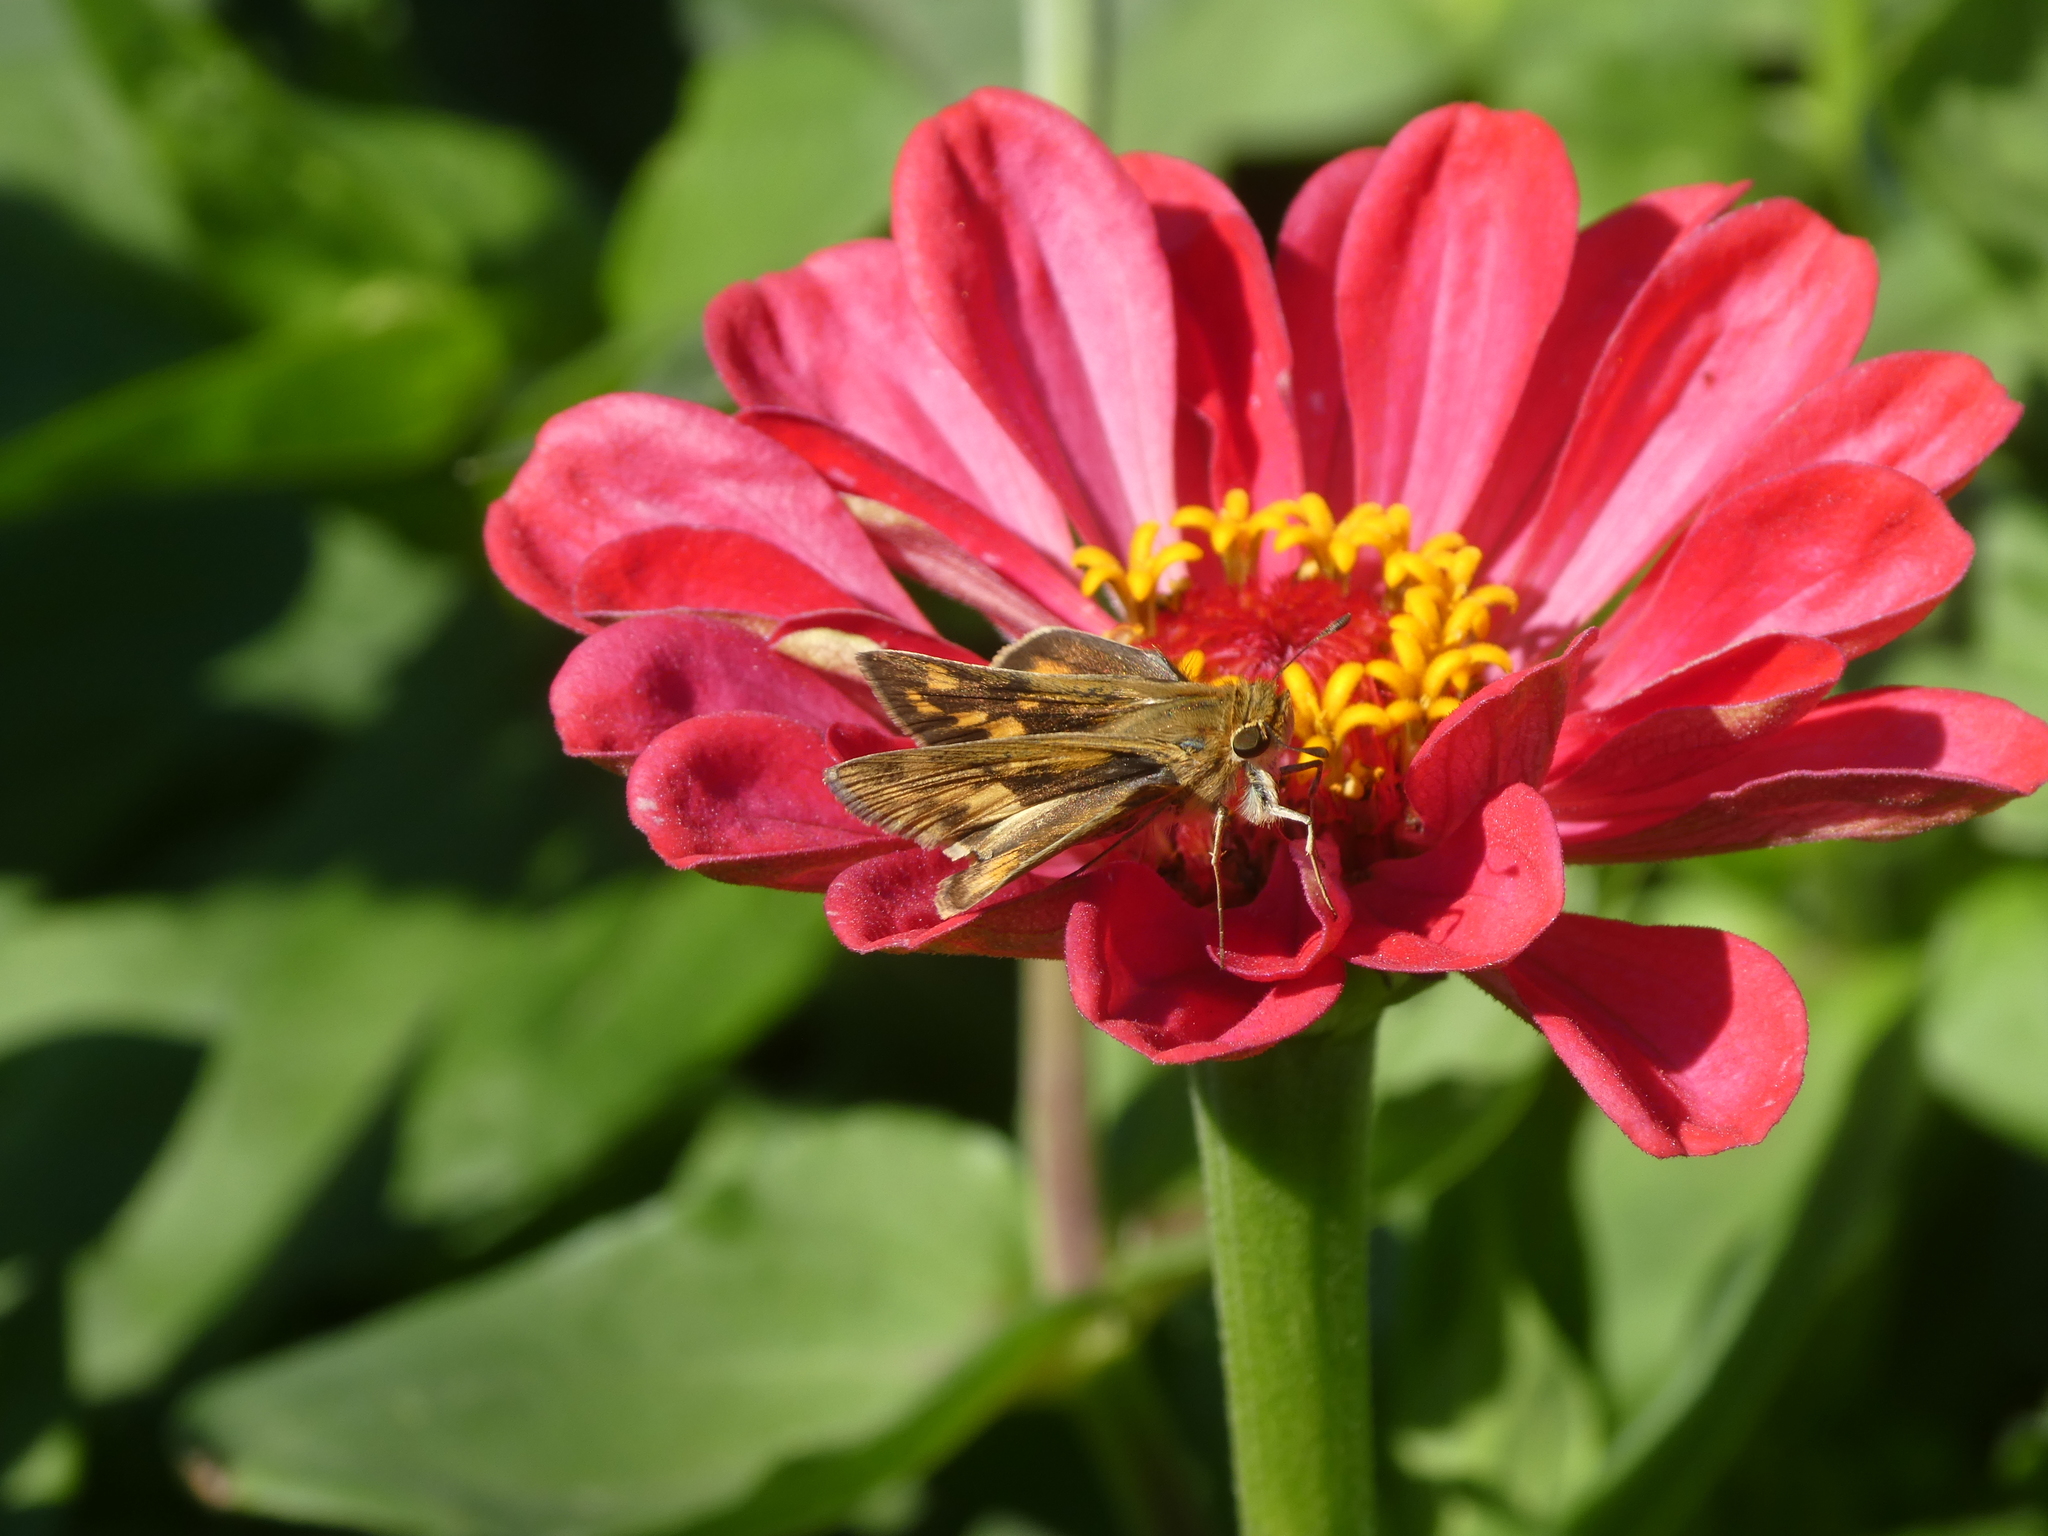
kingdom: Animalia
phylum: Arthropoda
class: Insecta
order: Lepidoptera
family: Hesperiidae
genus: Hylephila
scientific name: Hylephila phyleus
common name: Fiery skipper
